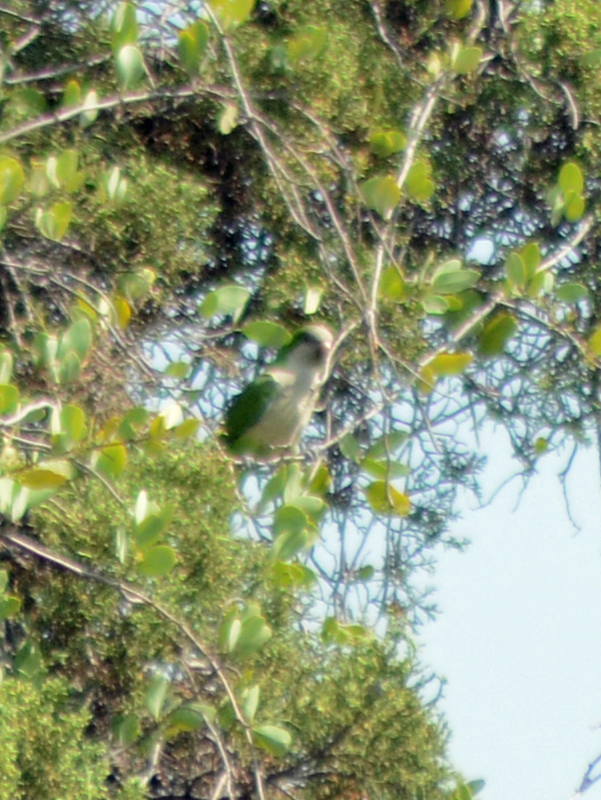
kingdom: Animalia
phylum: Chordata
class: Aves
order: Psittaciformes
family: Psittacidae
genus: Myiopsitta
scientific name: Myiopsitta monachus
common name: Monk parakeet
